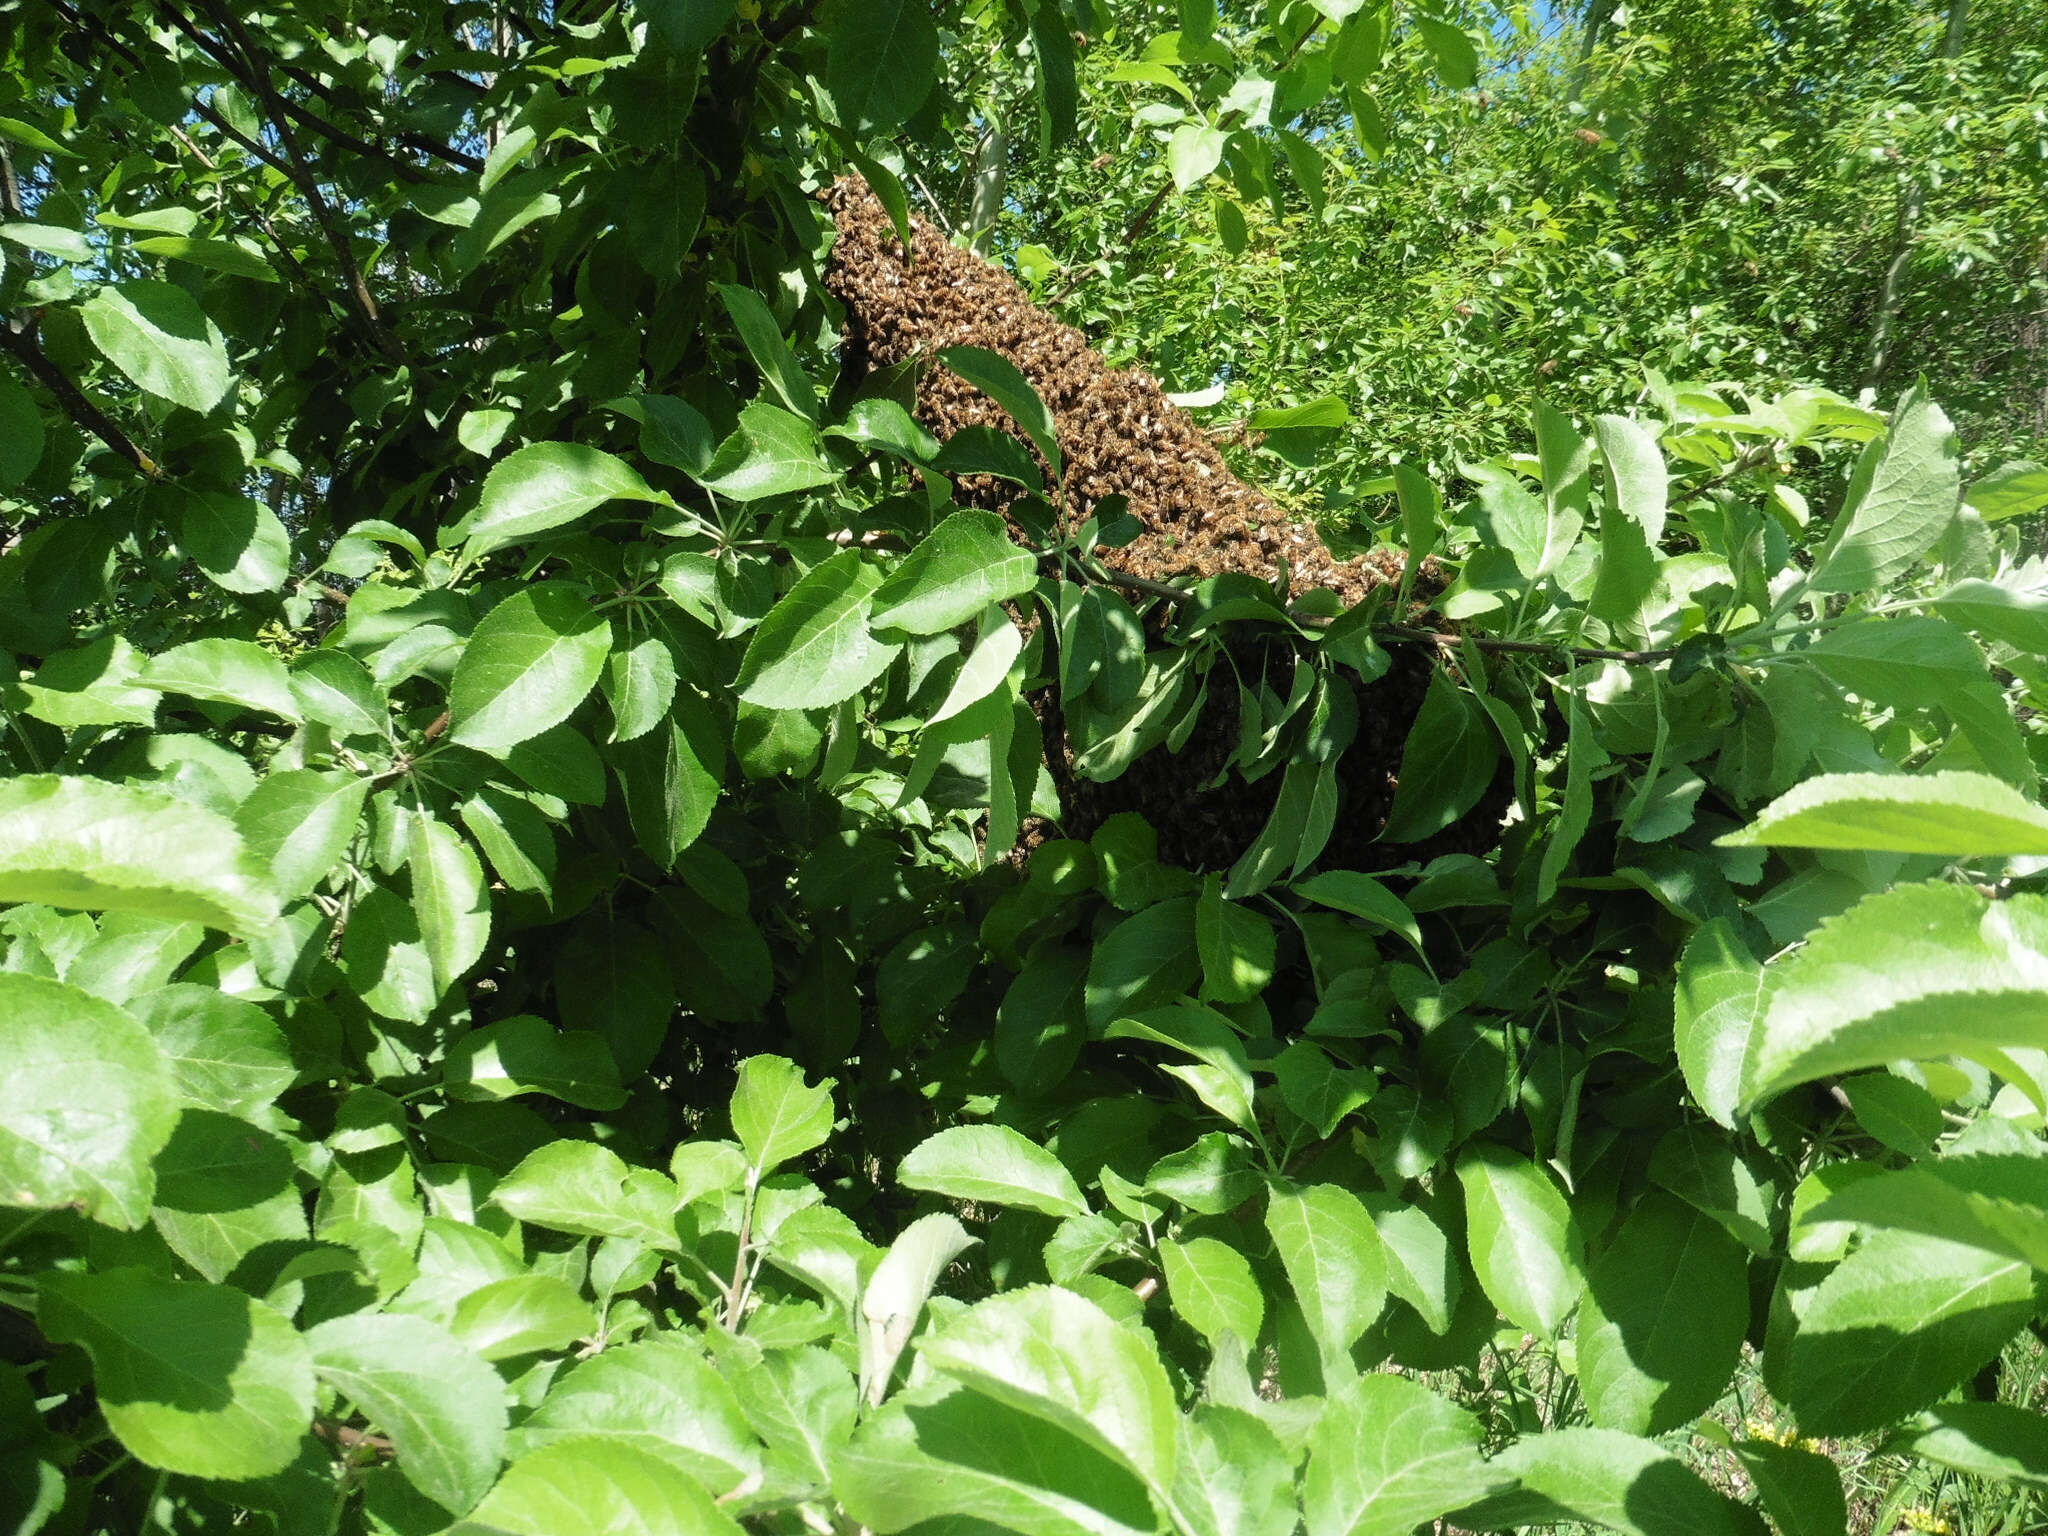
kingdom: Animalia
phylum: Arthropoda
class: Insecta
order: Hymenoptera
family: Apidae
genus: Apis
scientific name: Apis mellifera
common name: Honey bee
